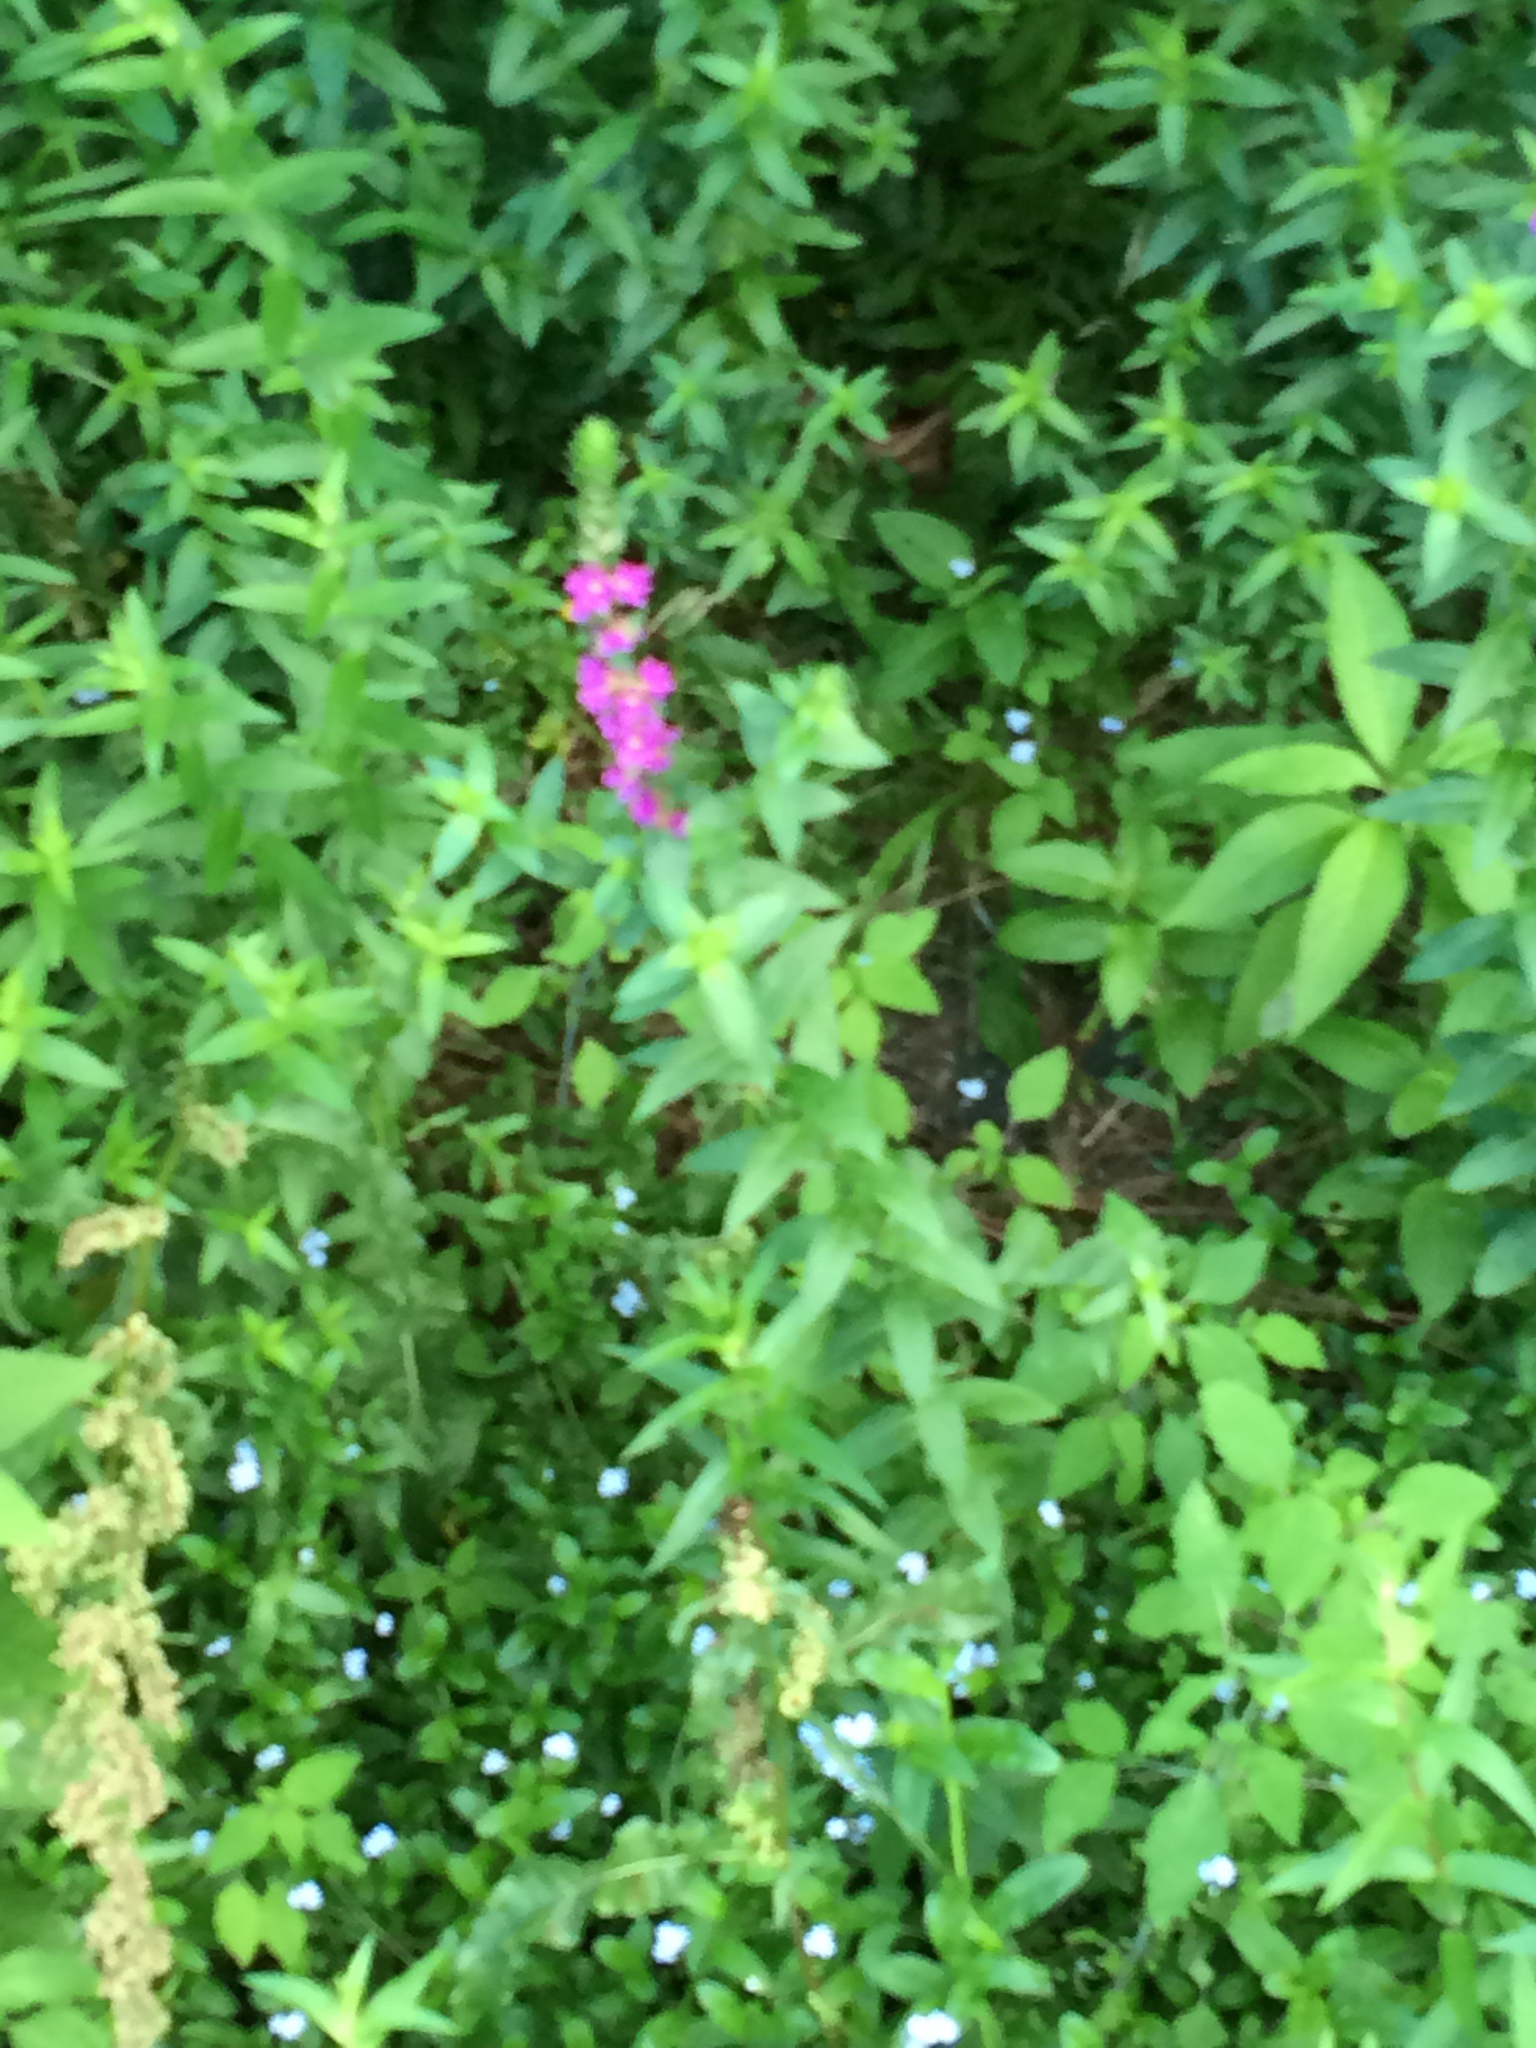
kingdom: Plantae
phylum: Tracheophyta
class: Magnoliopsida
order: Myrtales
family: Lythraceae
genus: Lythrum
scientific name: Lythrum salicaria
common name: Purple loosestrife
